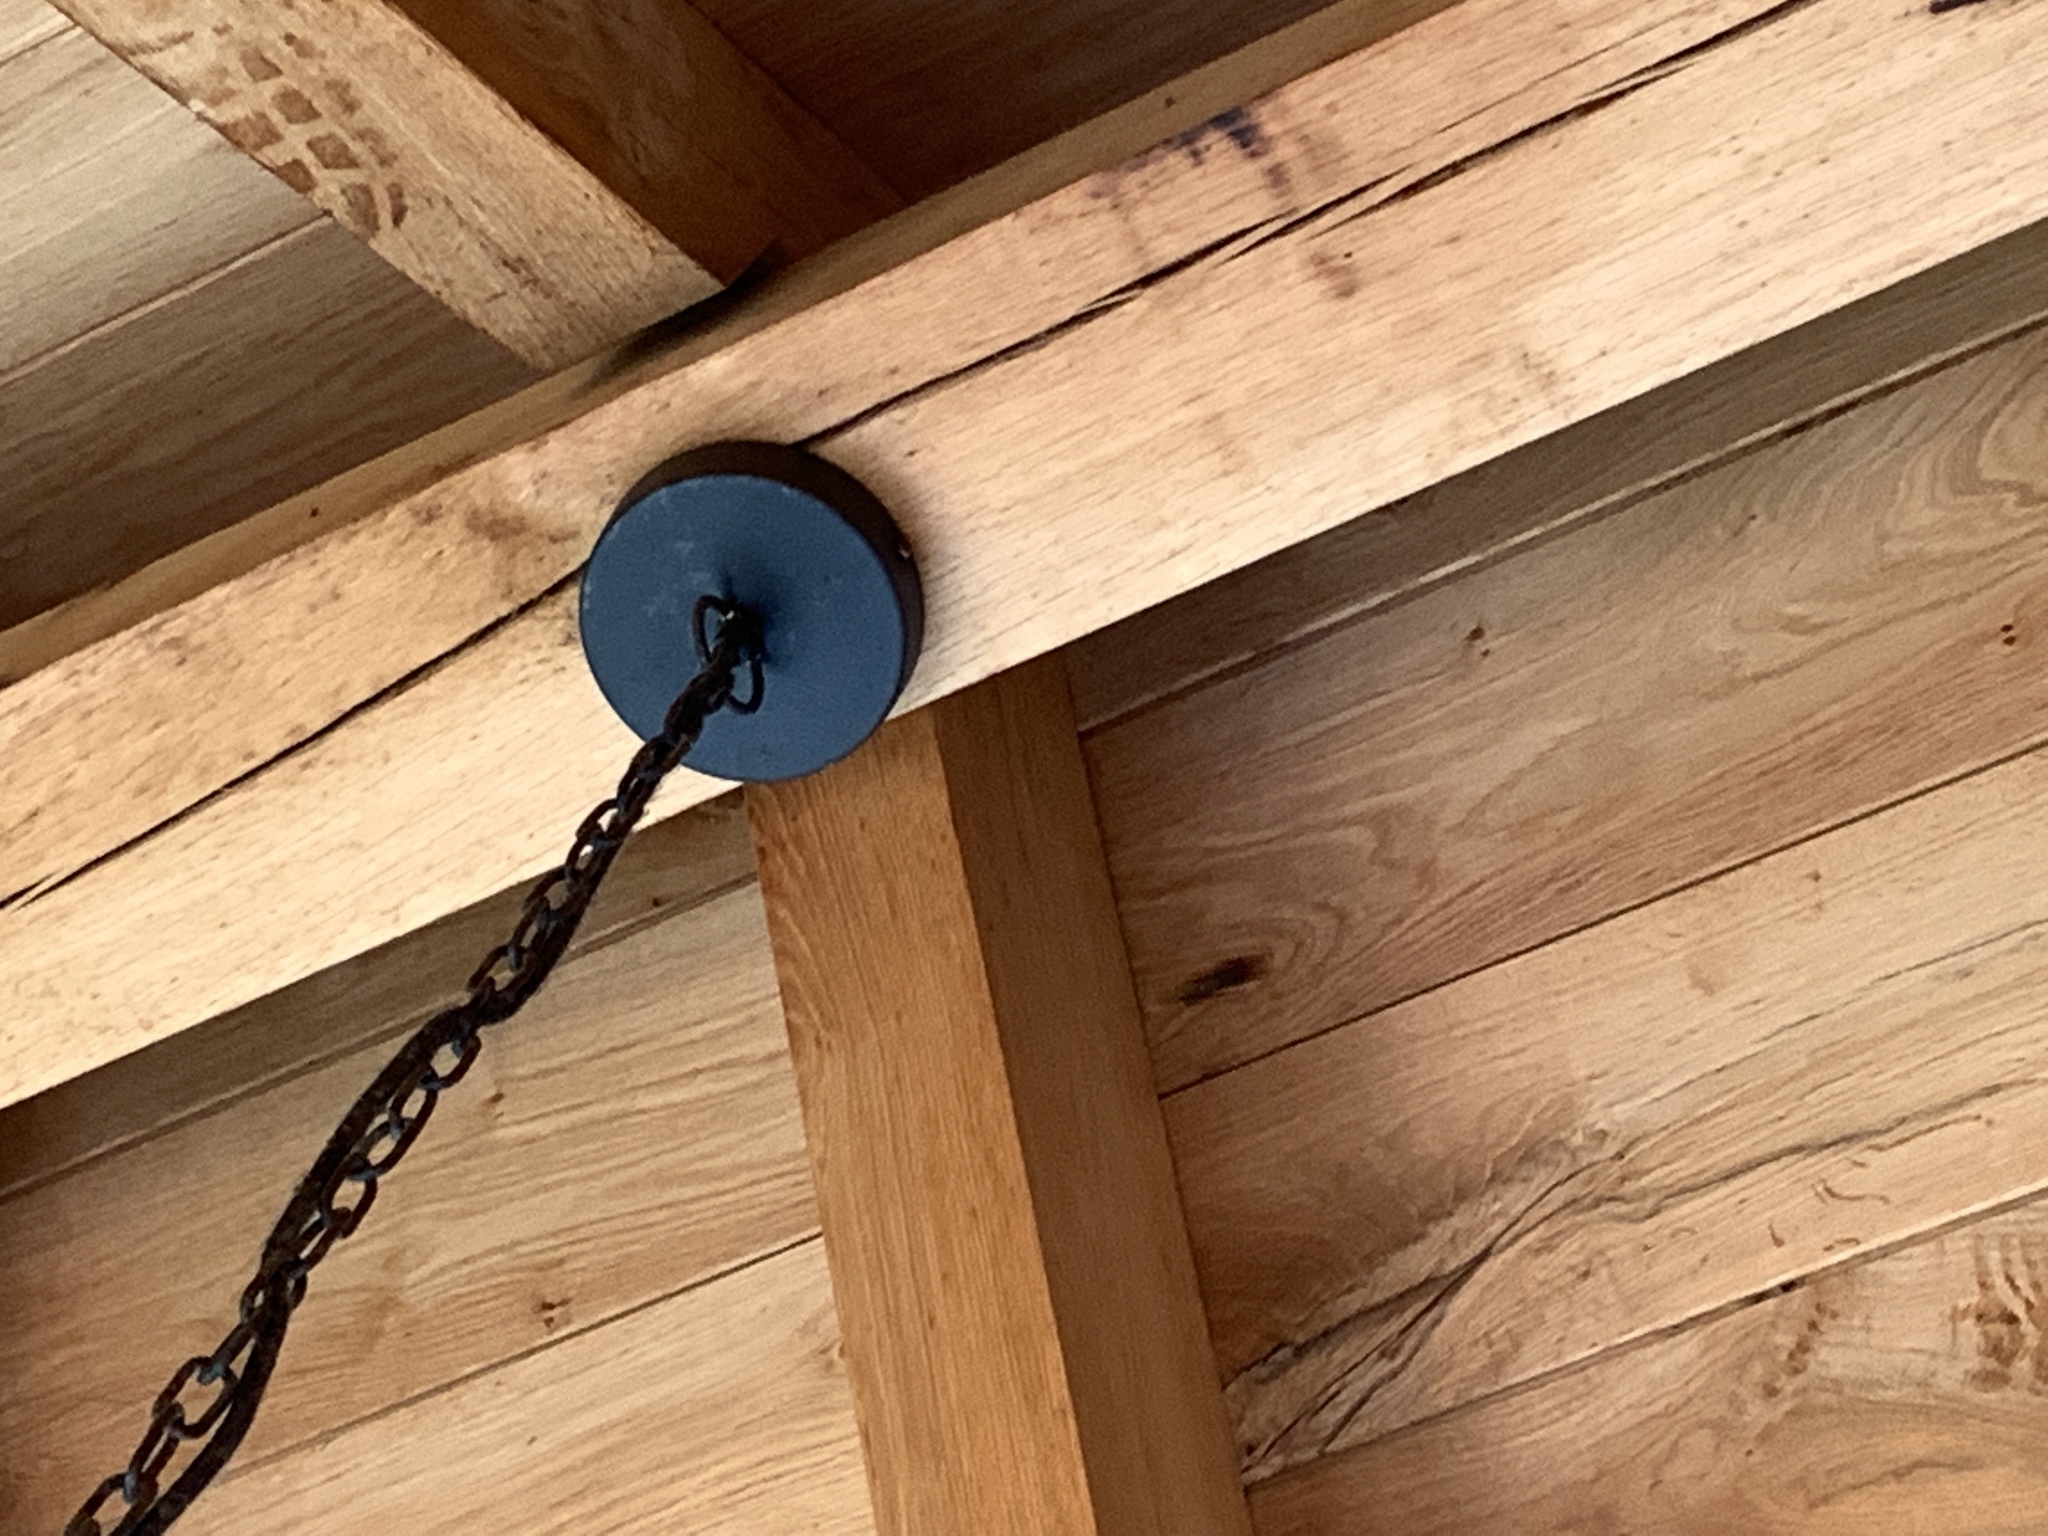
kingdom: Animalia
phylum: Arthropoda
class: Insecta
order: Hymenoptera
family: Vespidae
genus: Vespa
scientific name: Vespa crabro
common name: Hornet
